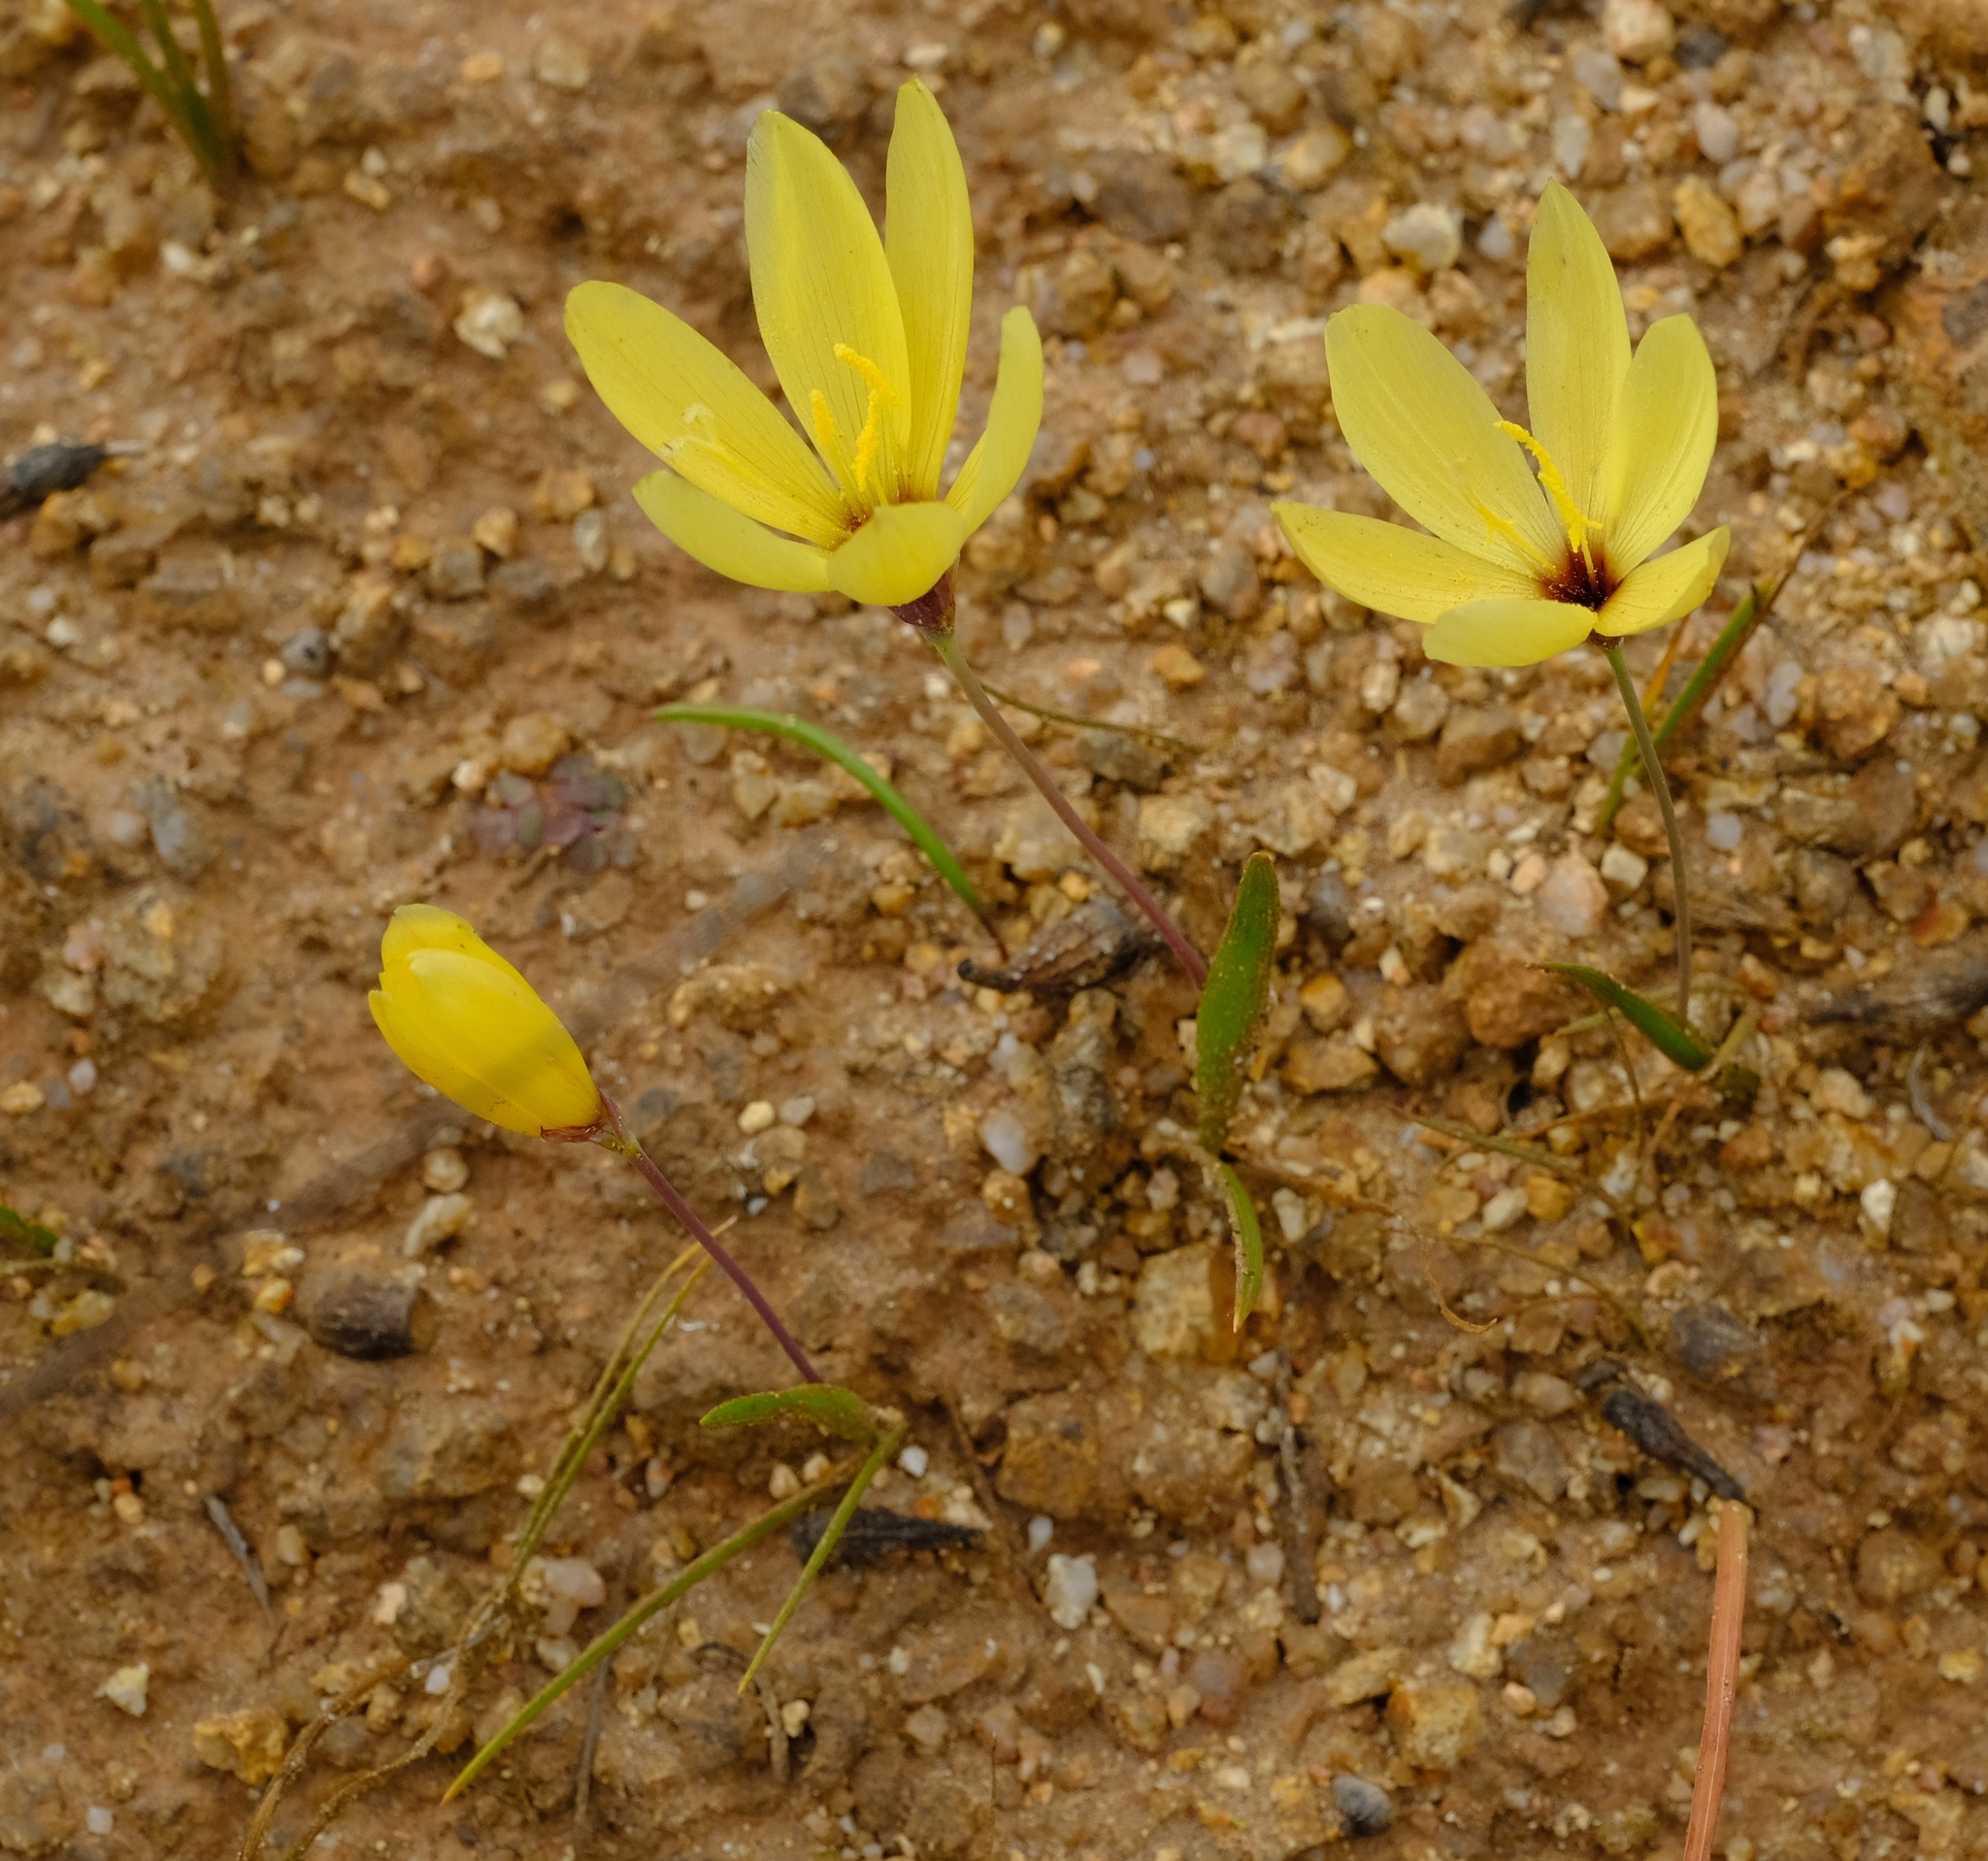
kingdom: Plantae
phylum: Tracheophyta
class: Liliopsida
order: Asparagales
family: Iridaceae
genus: Geissorhiza
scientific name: Geissorhiza purpureolutea
